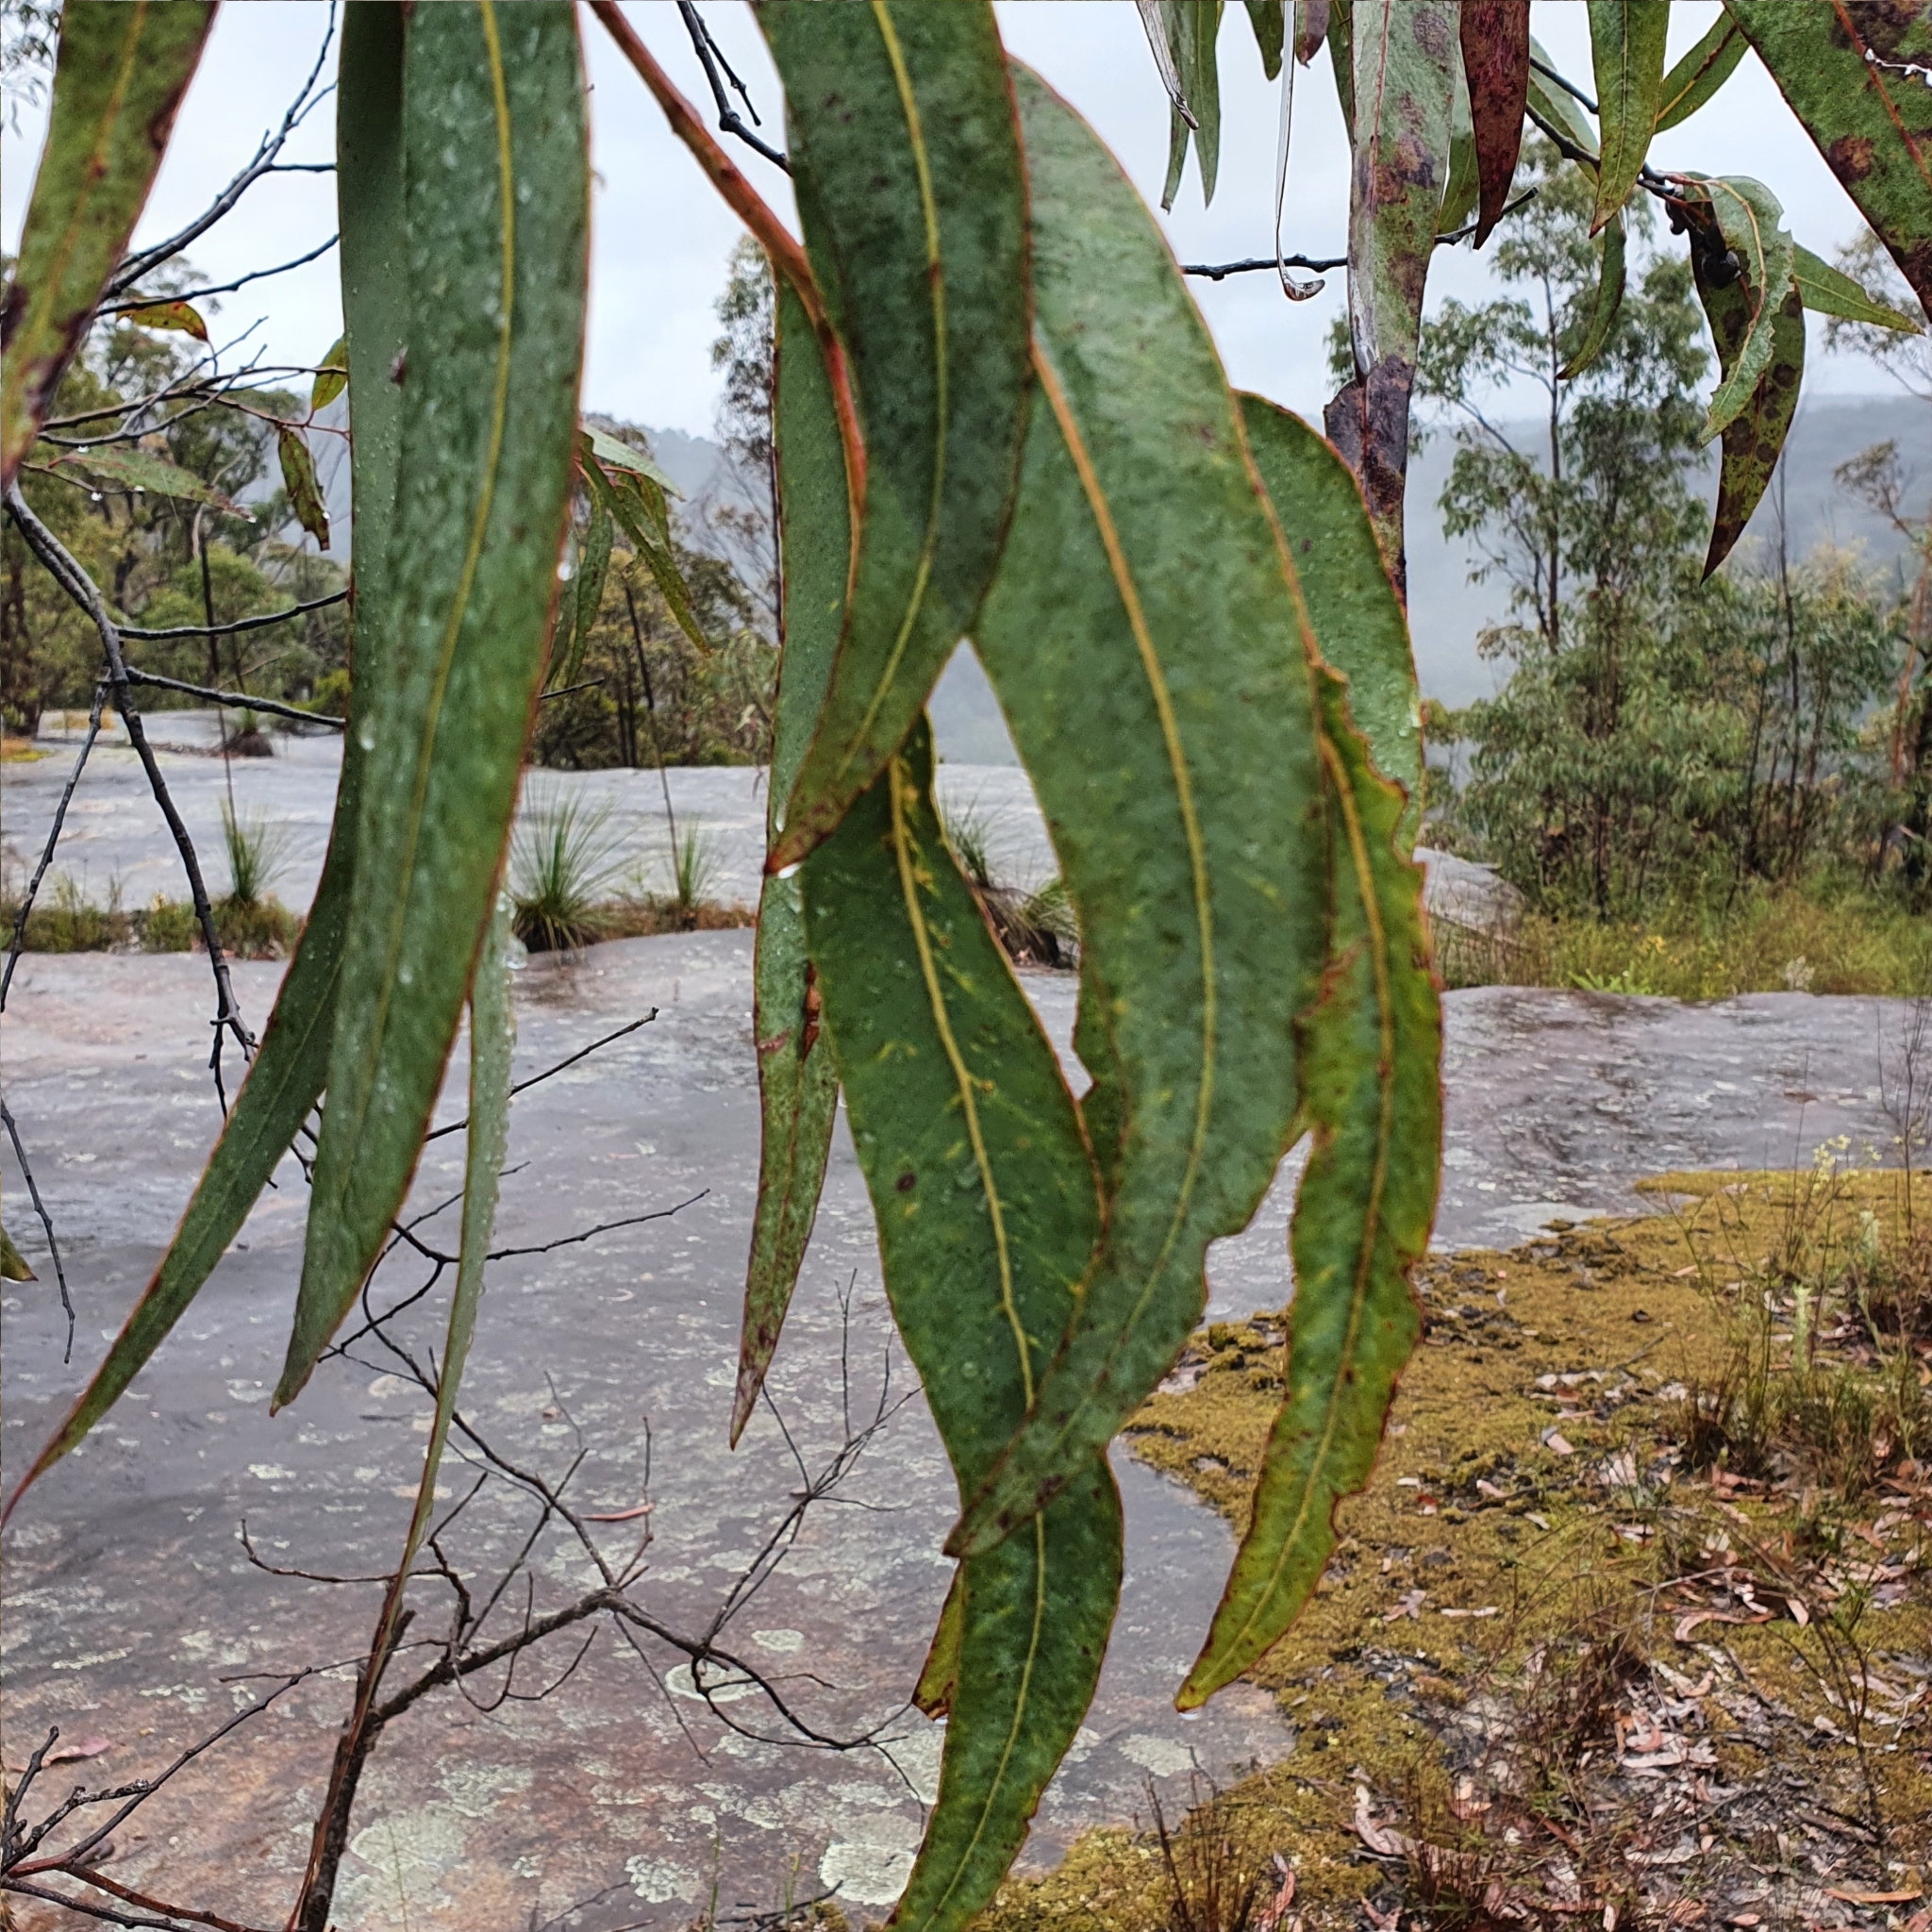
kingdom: Plantae
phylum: Tracheophyta
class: Magnoliopsida
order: Myrtales
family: Myrtaceae
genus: Corymbia
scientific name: Corymbia eximia
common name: Yellow bloodwood
